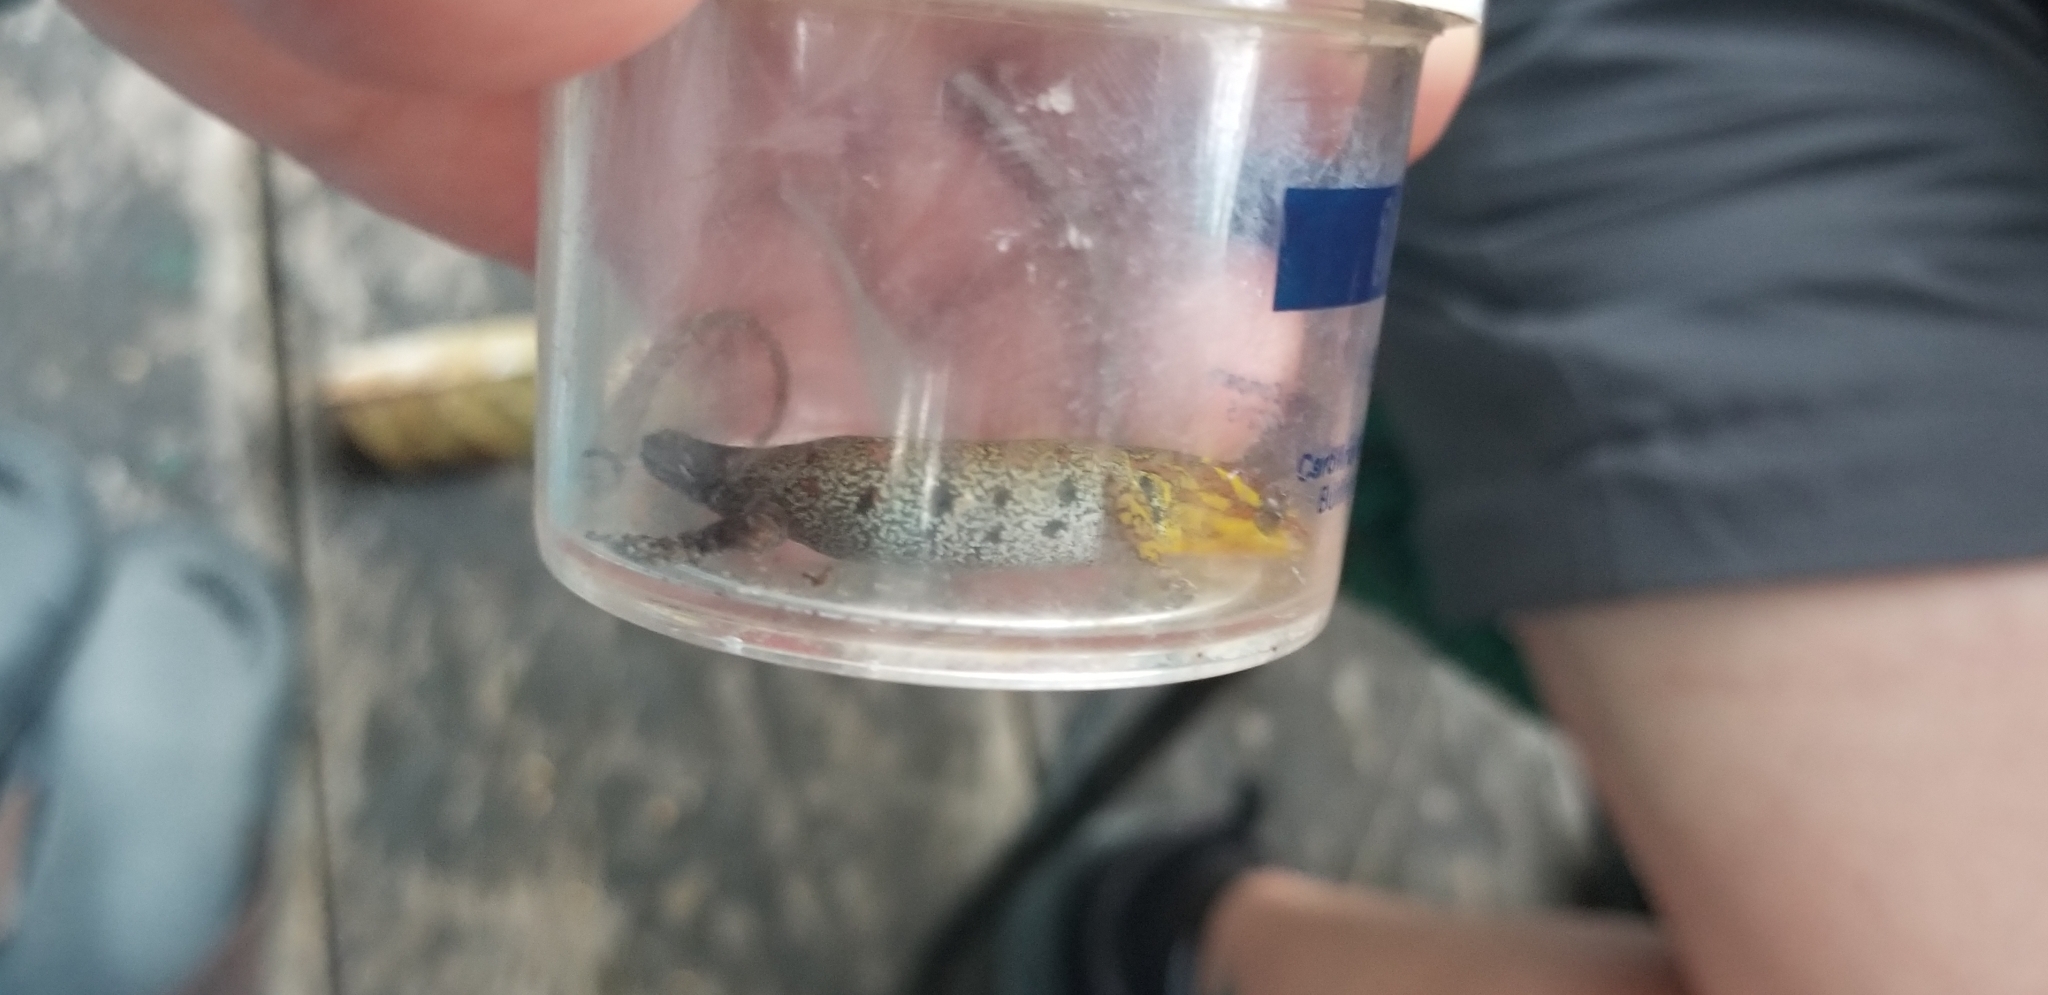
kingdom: Animalia
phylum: Chordata
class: Squamata
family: Sphaerodactylidae
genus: Gonatodes
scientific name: Gonatodes humeralis
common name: South american clawed gecko
